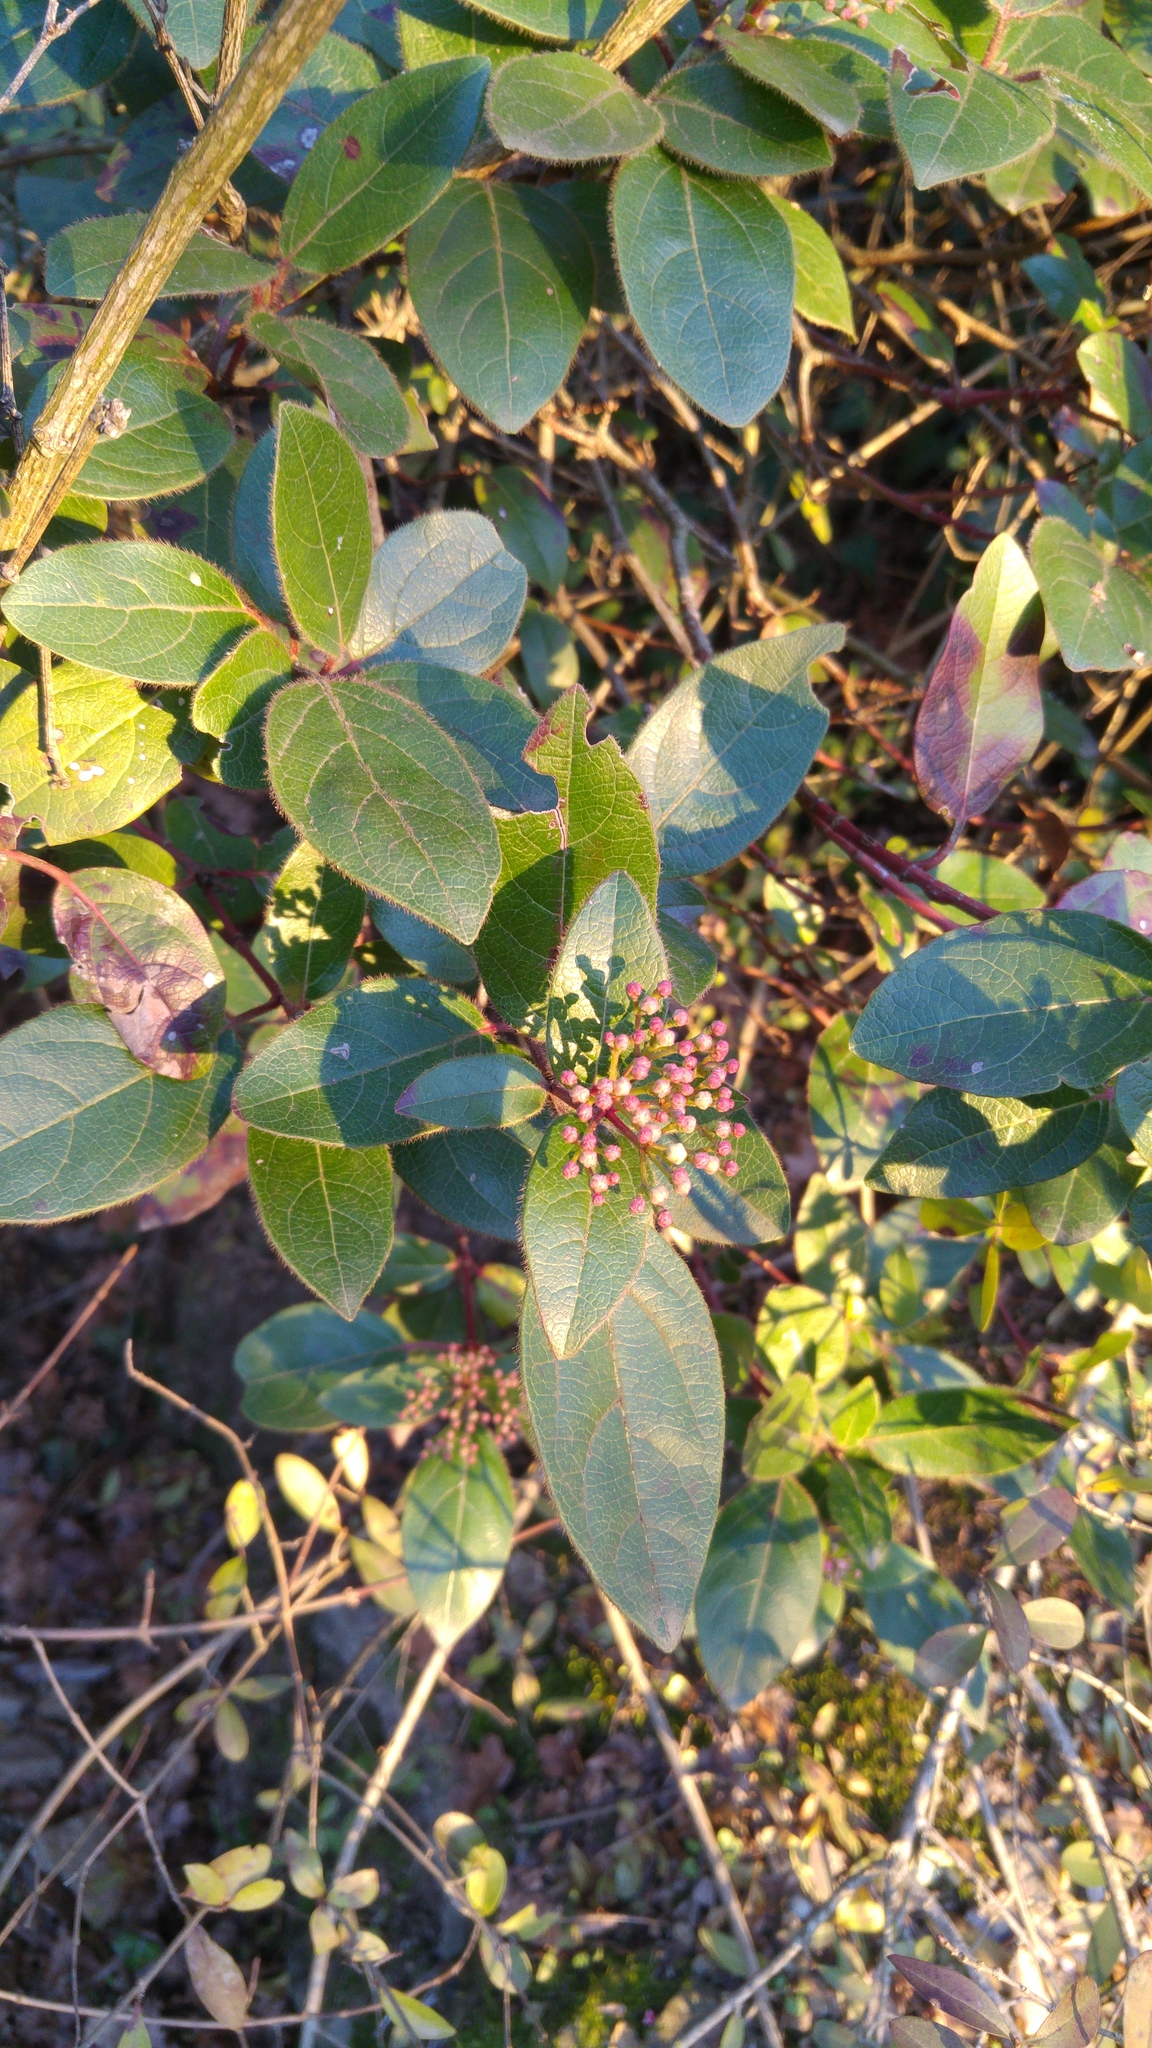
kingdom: Plantae
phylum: Tracheophyta
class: Magnoliopsida
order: Dipsacales
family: Viburnaceae
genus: Viburnum
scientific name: Viburnum tinus
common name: Laurustinus
